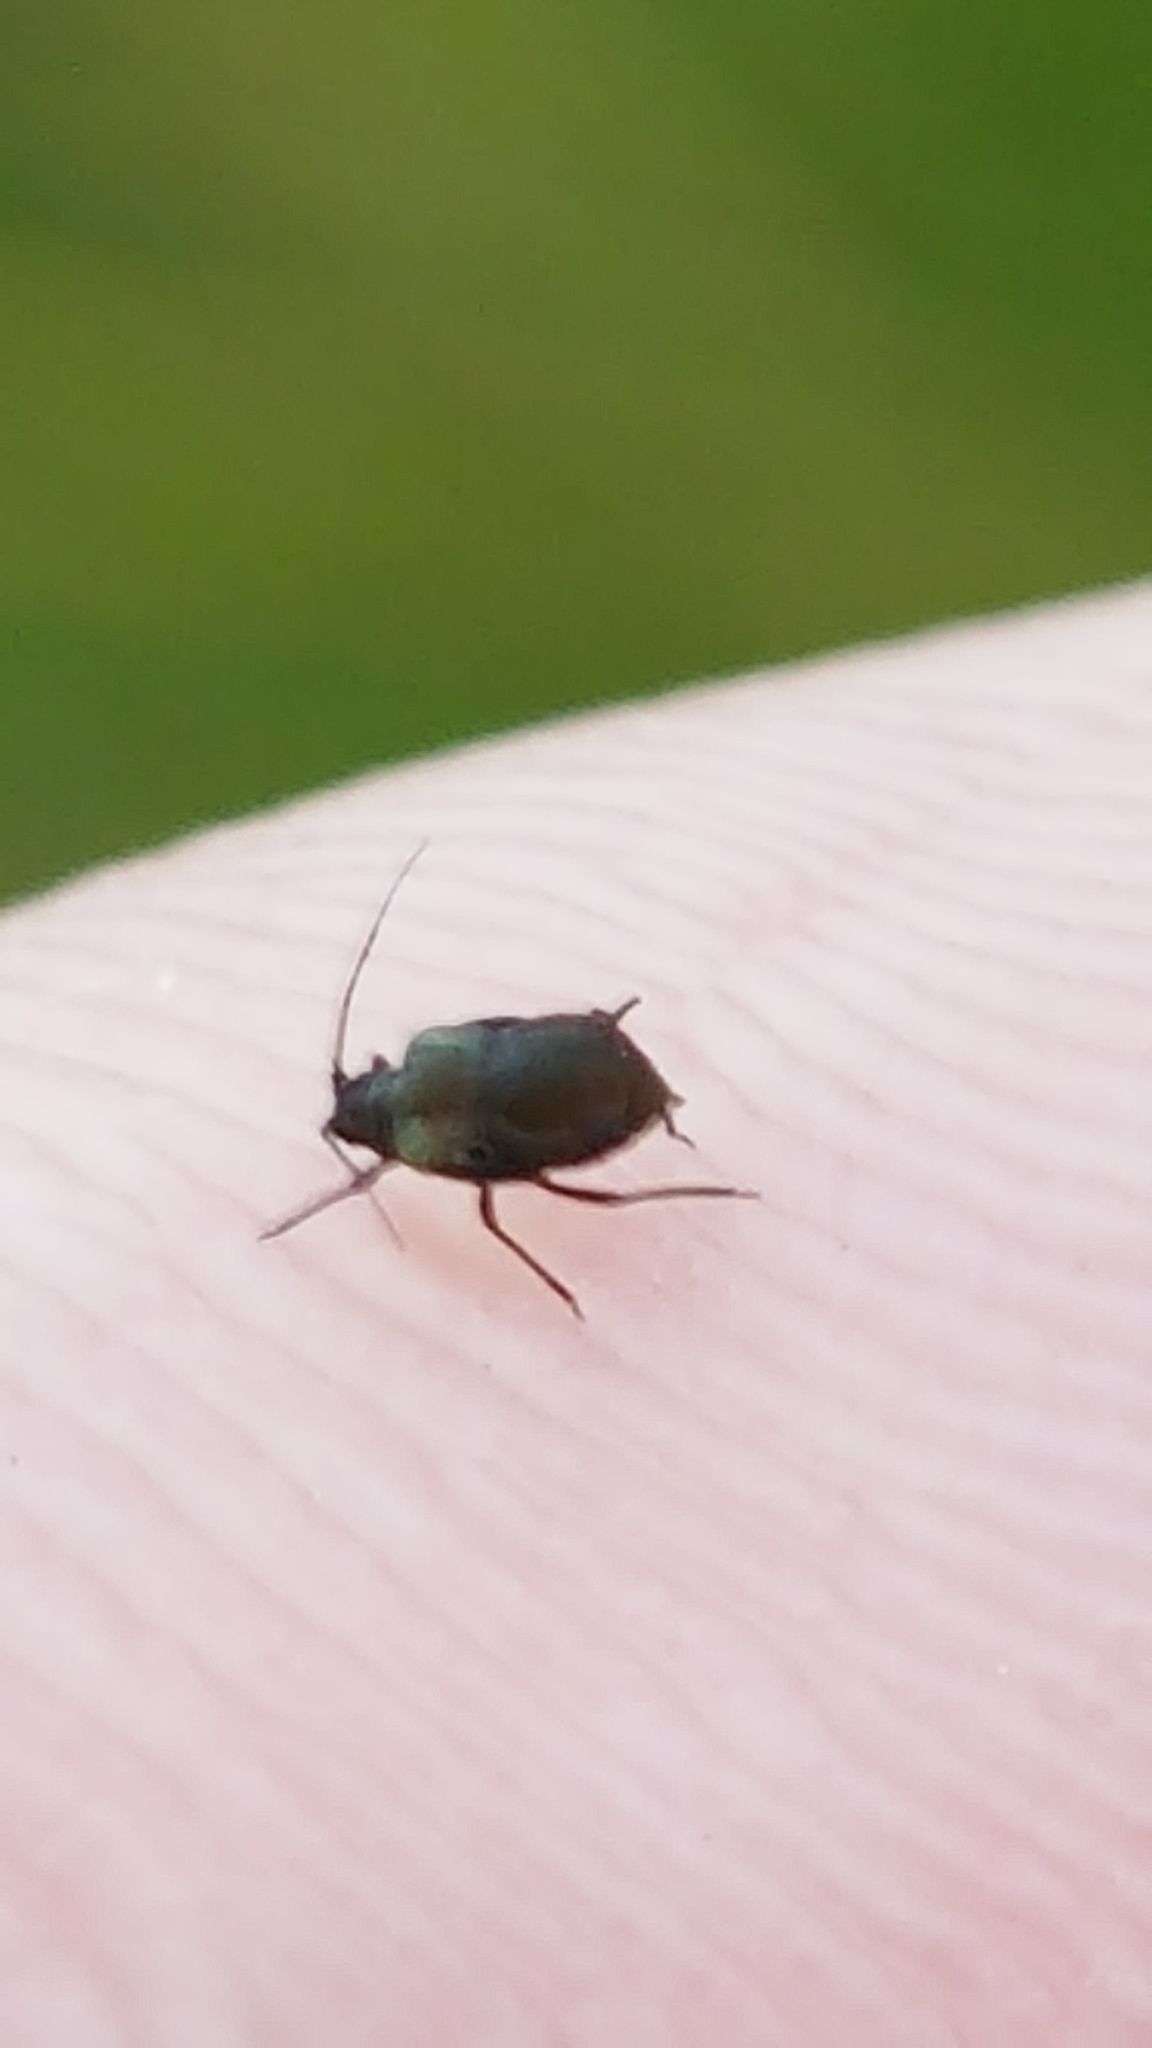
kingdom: Animalia
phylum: Arthropoda
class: Insecta
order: Hemiptera
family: Aphididae
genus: Hysteroneura
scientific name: Hysteroneura setariae
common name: Rusty plum aphid
